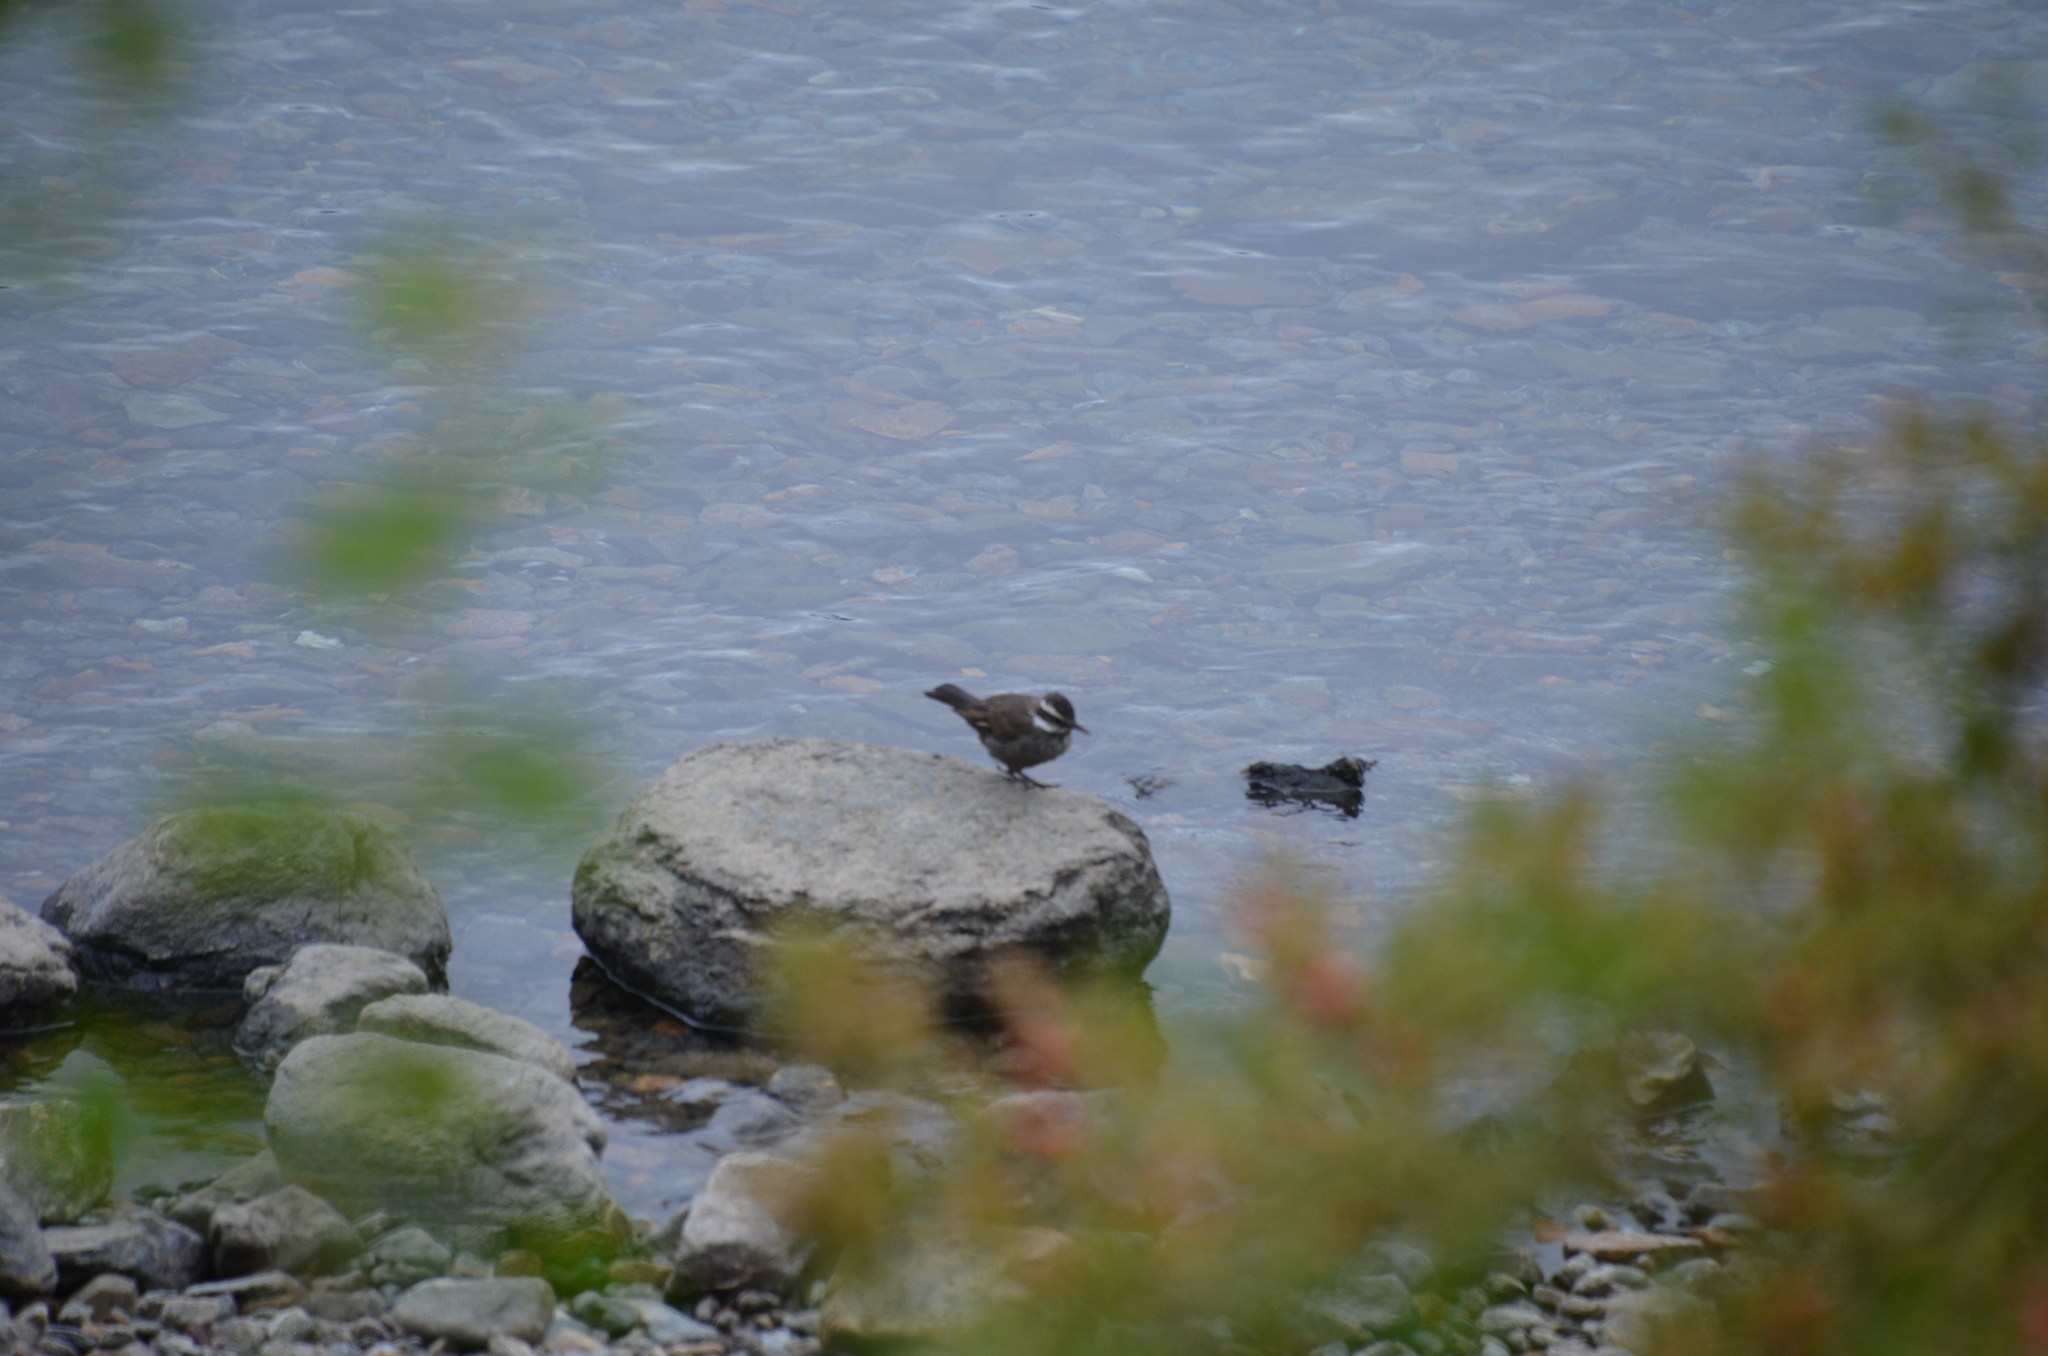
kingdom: Animalia
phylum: Chordata
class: Aves
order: Passeriformes
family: Furnariidae
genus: Cinclodes
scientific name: Cinclodes patagonicus
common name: Dark-bellied cinclodes
